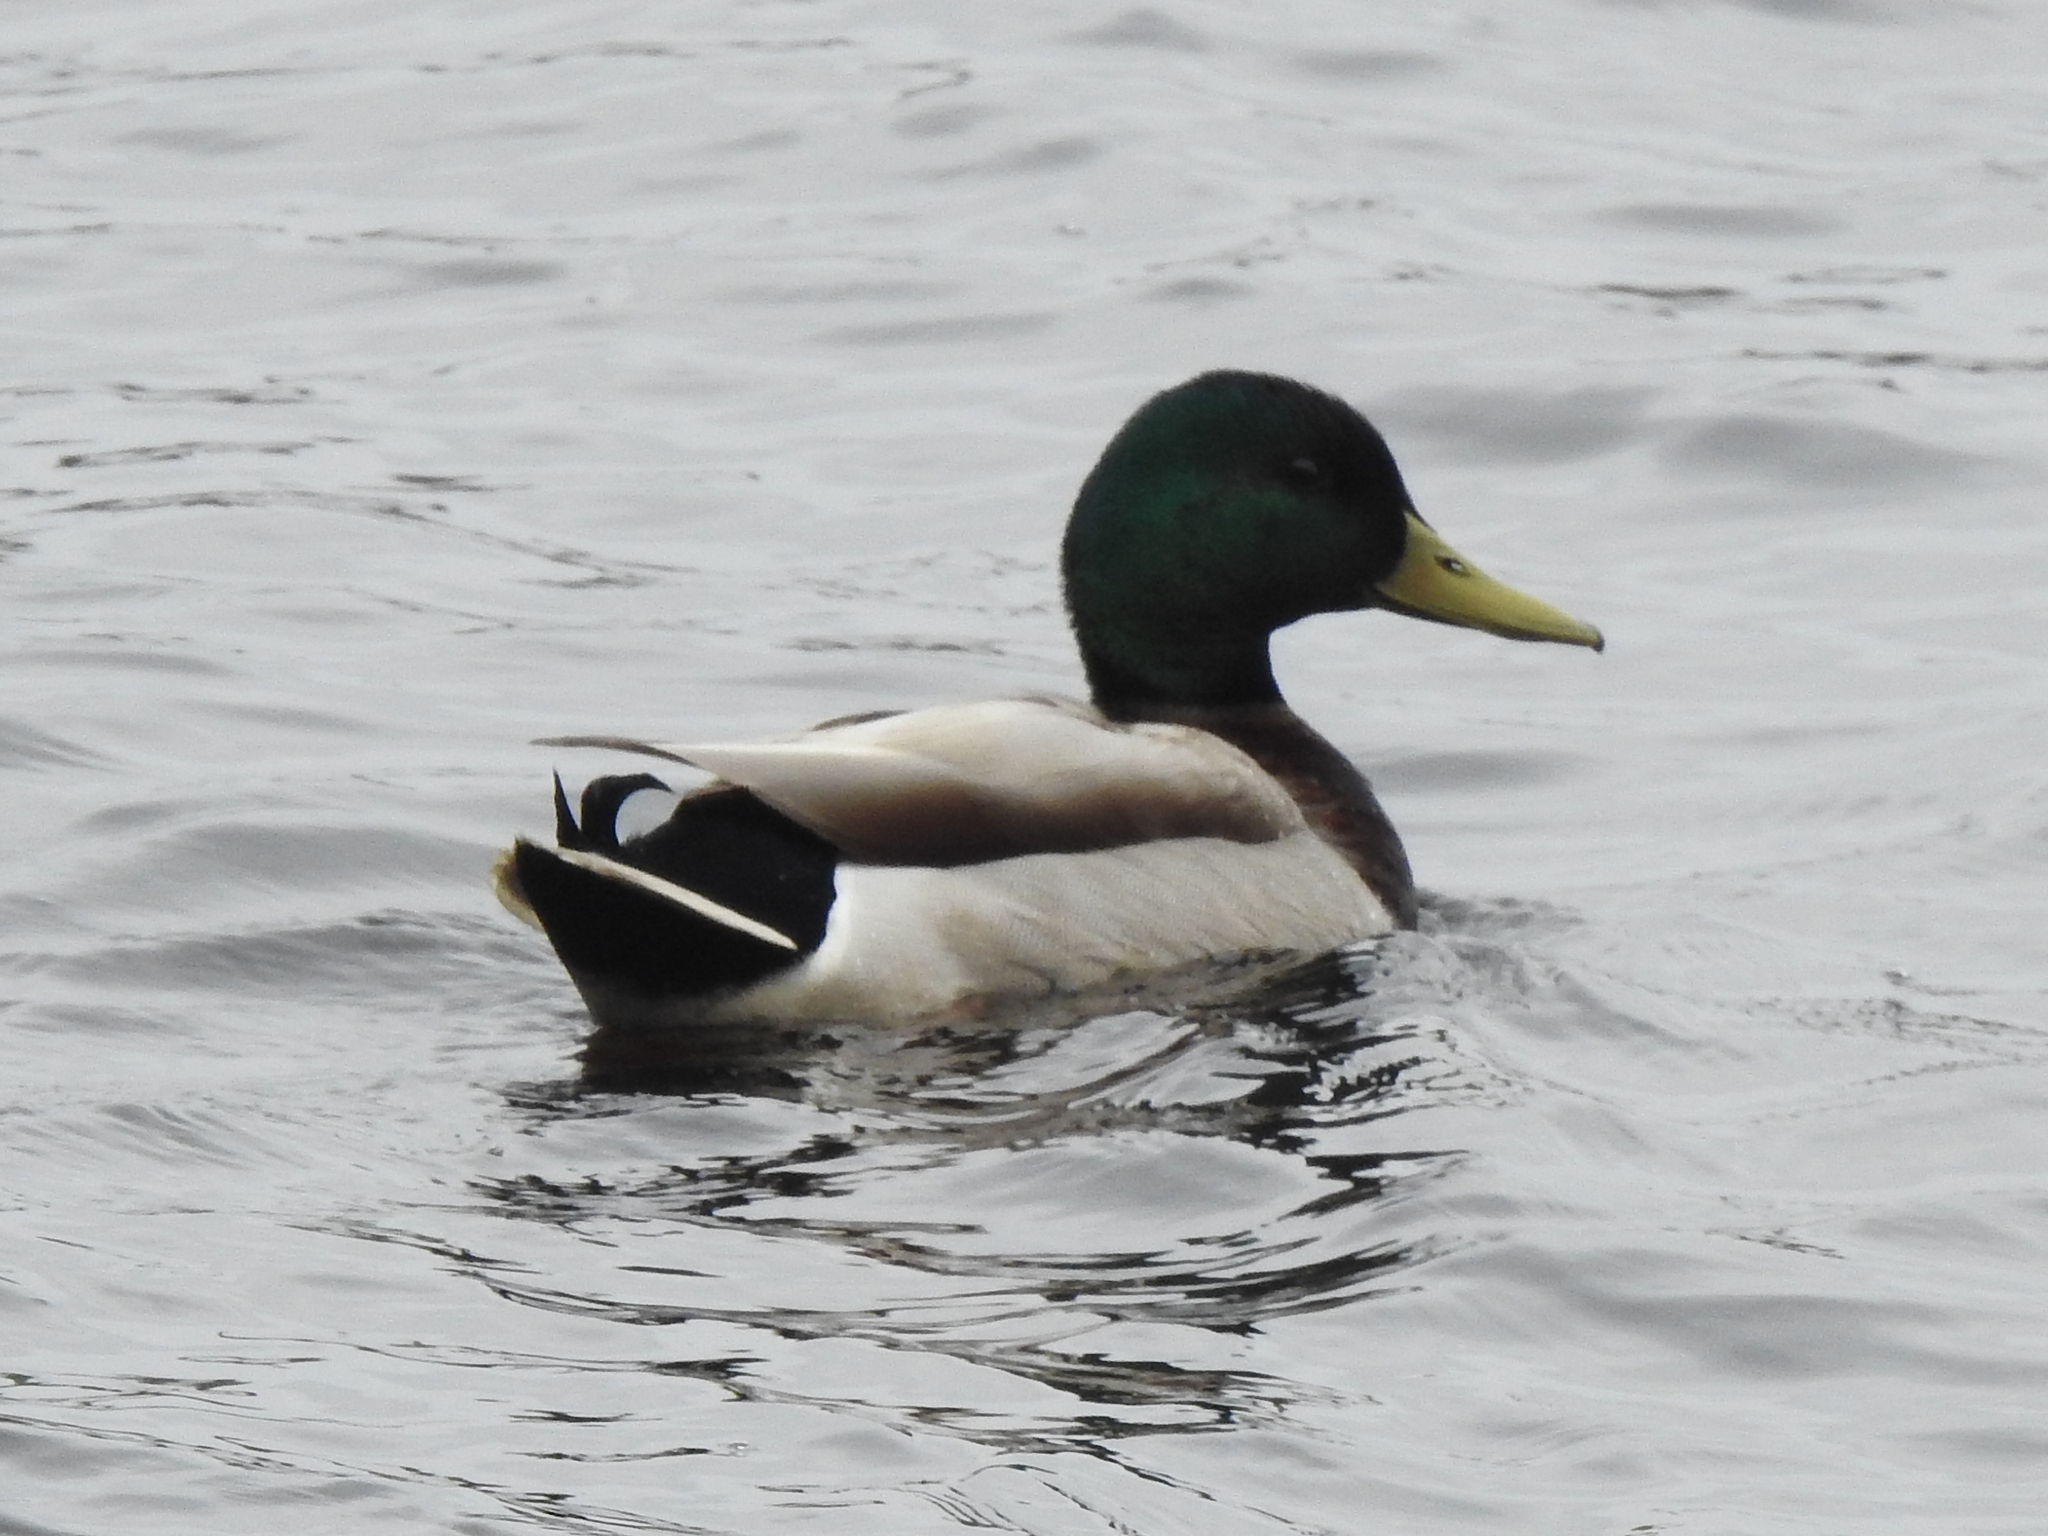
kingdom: Animalia
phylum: Chordata
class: Aves
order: Anseriformes
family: Anatidae
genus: Anas
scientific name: Anas platyrhynchos
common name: Mallard
